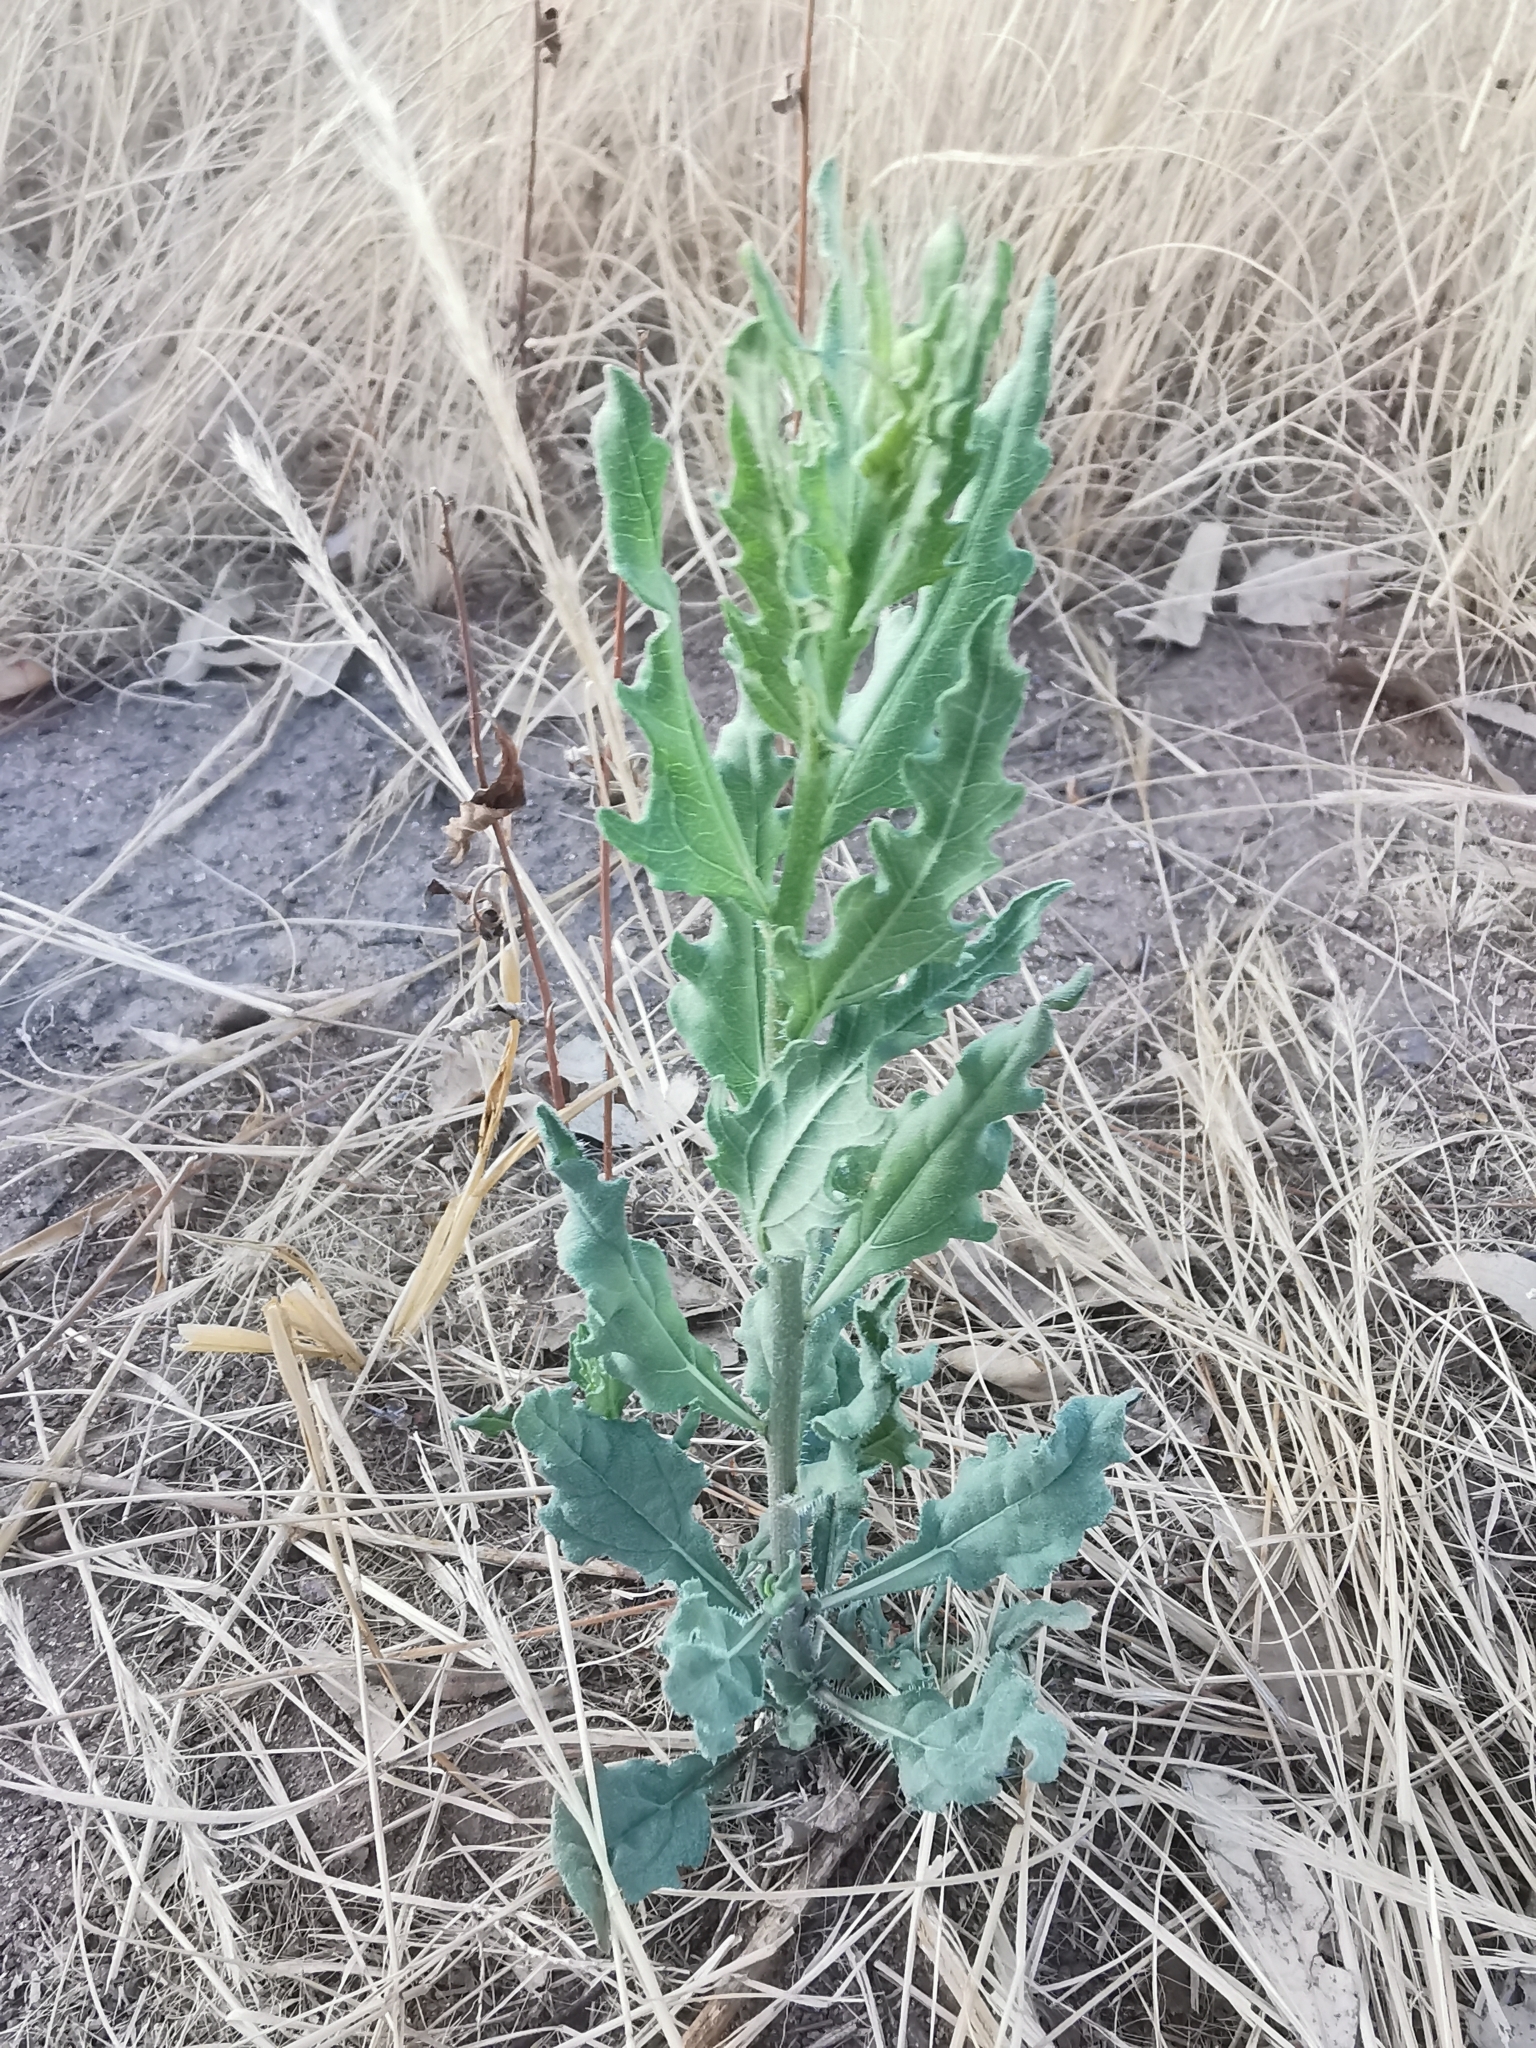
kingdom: Plantae
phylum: Tracheophyta
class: Magnoliopsida
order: Asterales
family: Asteraceae
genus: Helianthus
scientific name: Helianthus laciniatus
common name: Jagged-edge sunflower
